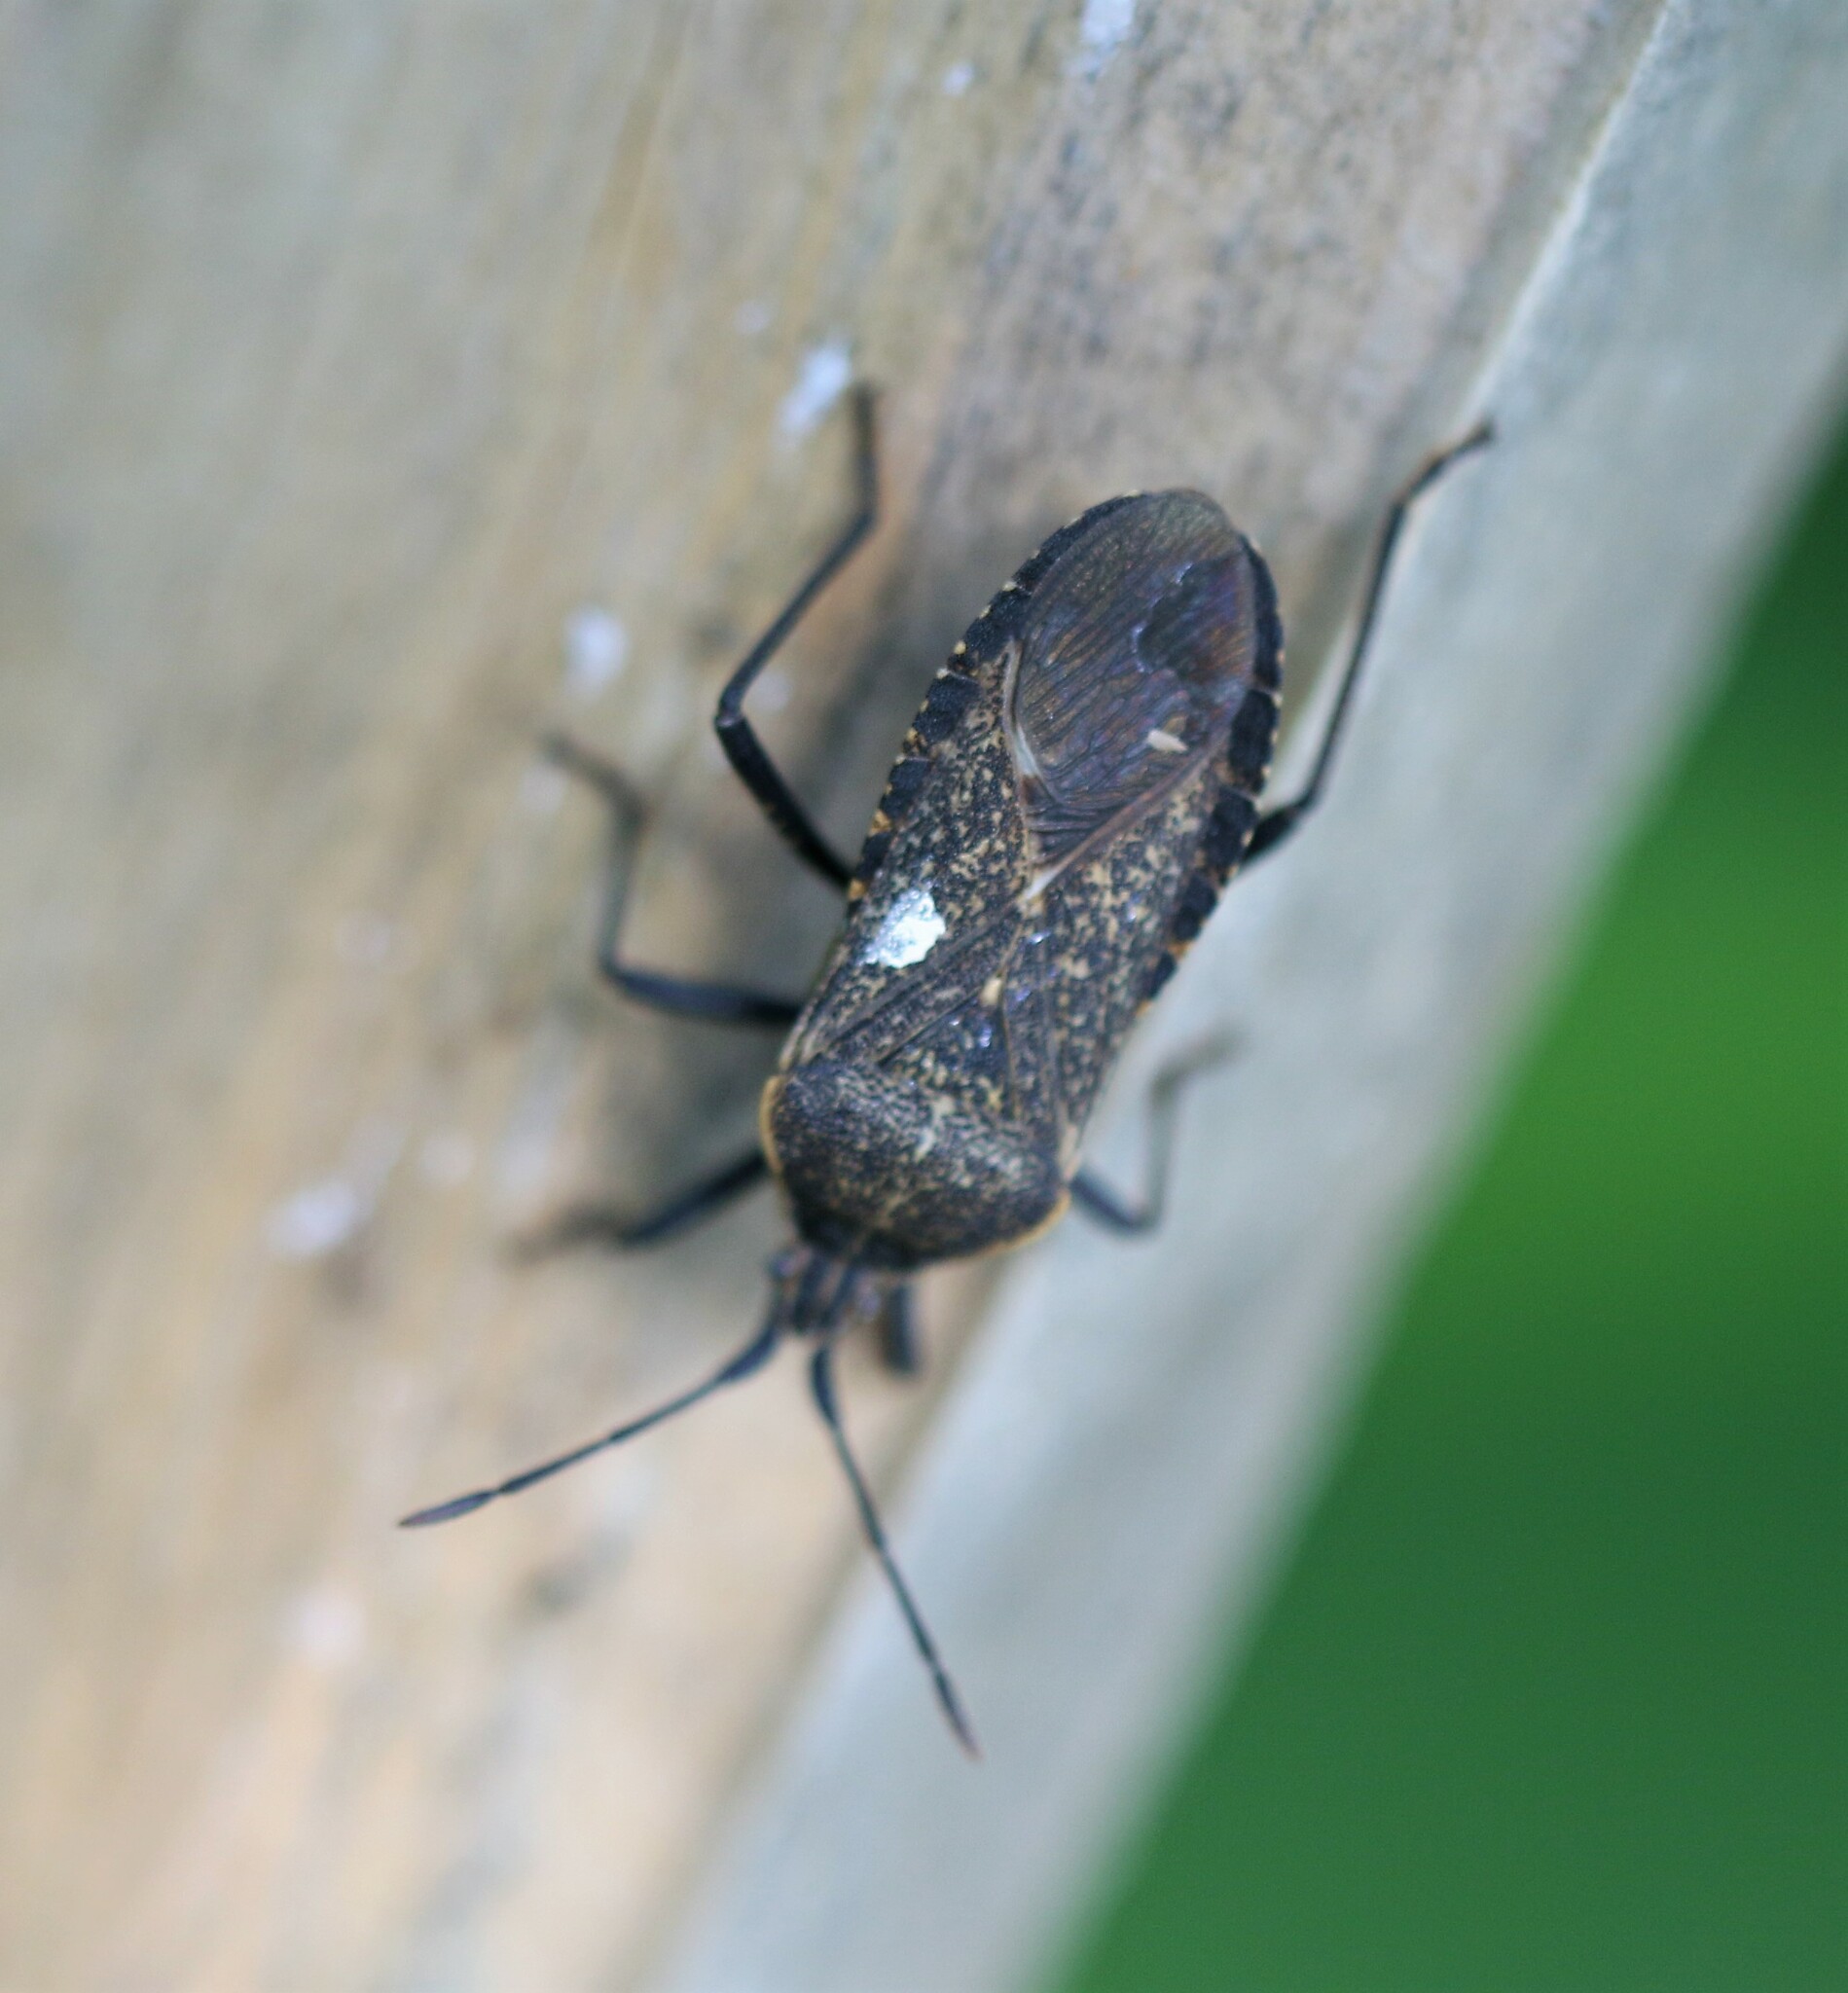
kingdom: Animalia
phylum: Arthropoda
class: Insecta
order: Hemiptera
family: Coreidae
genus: Anasa
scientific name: Anasa tristis
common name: Squash bug
